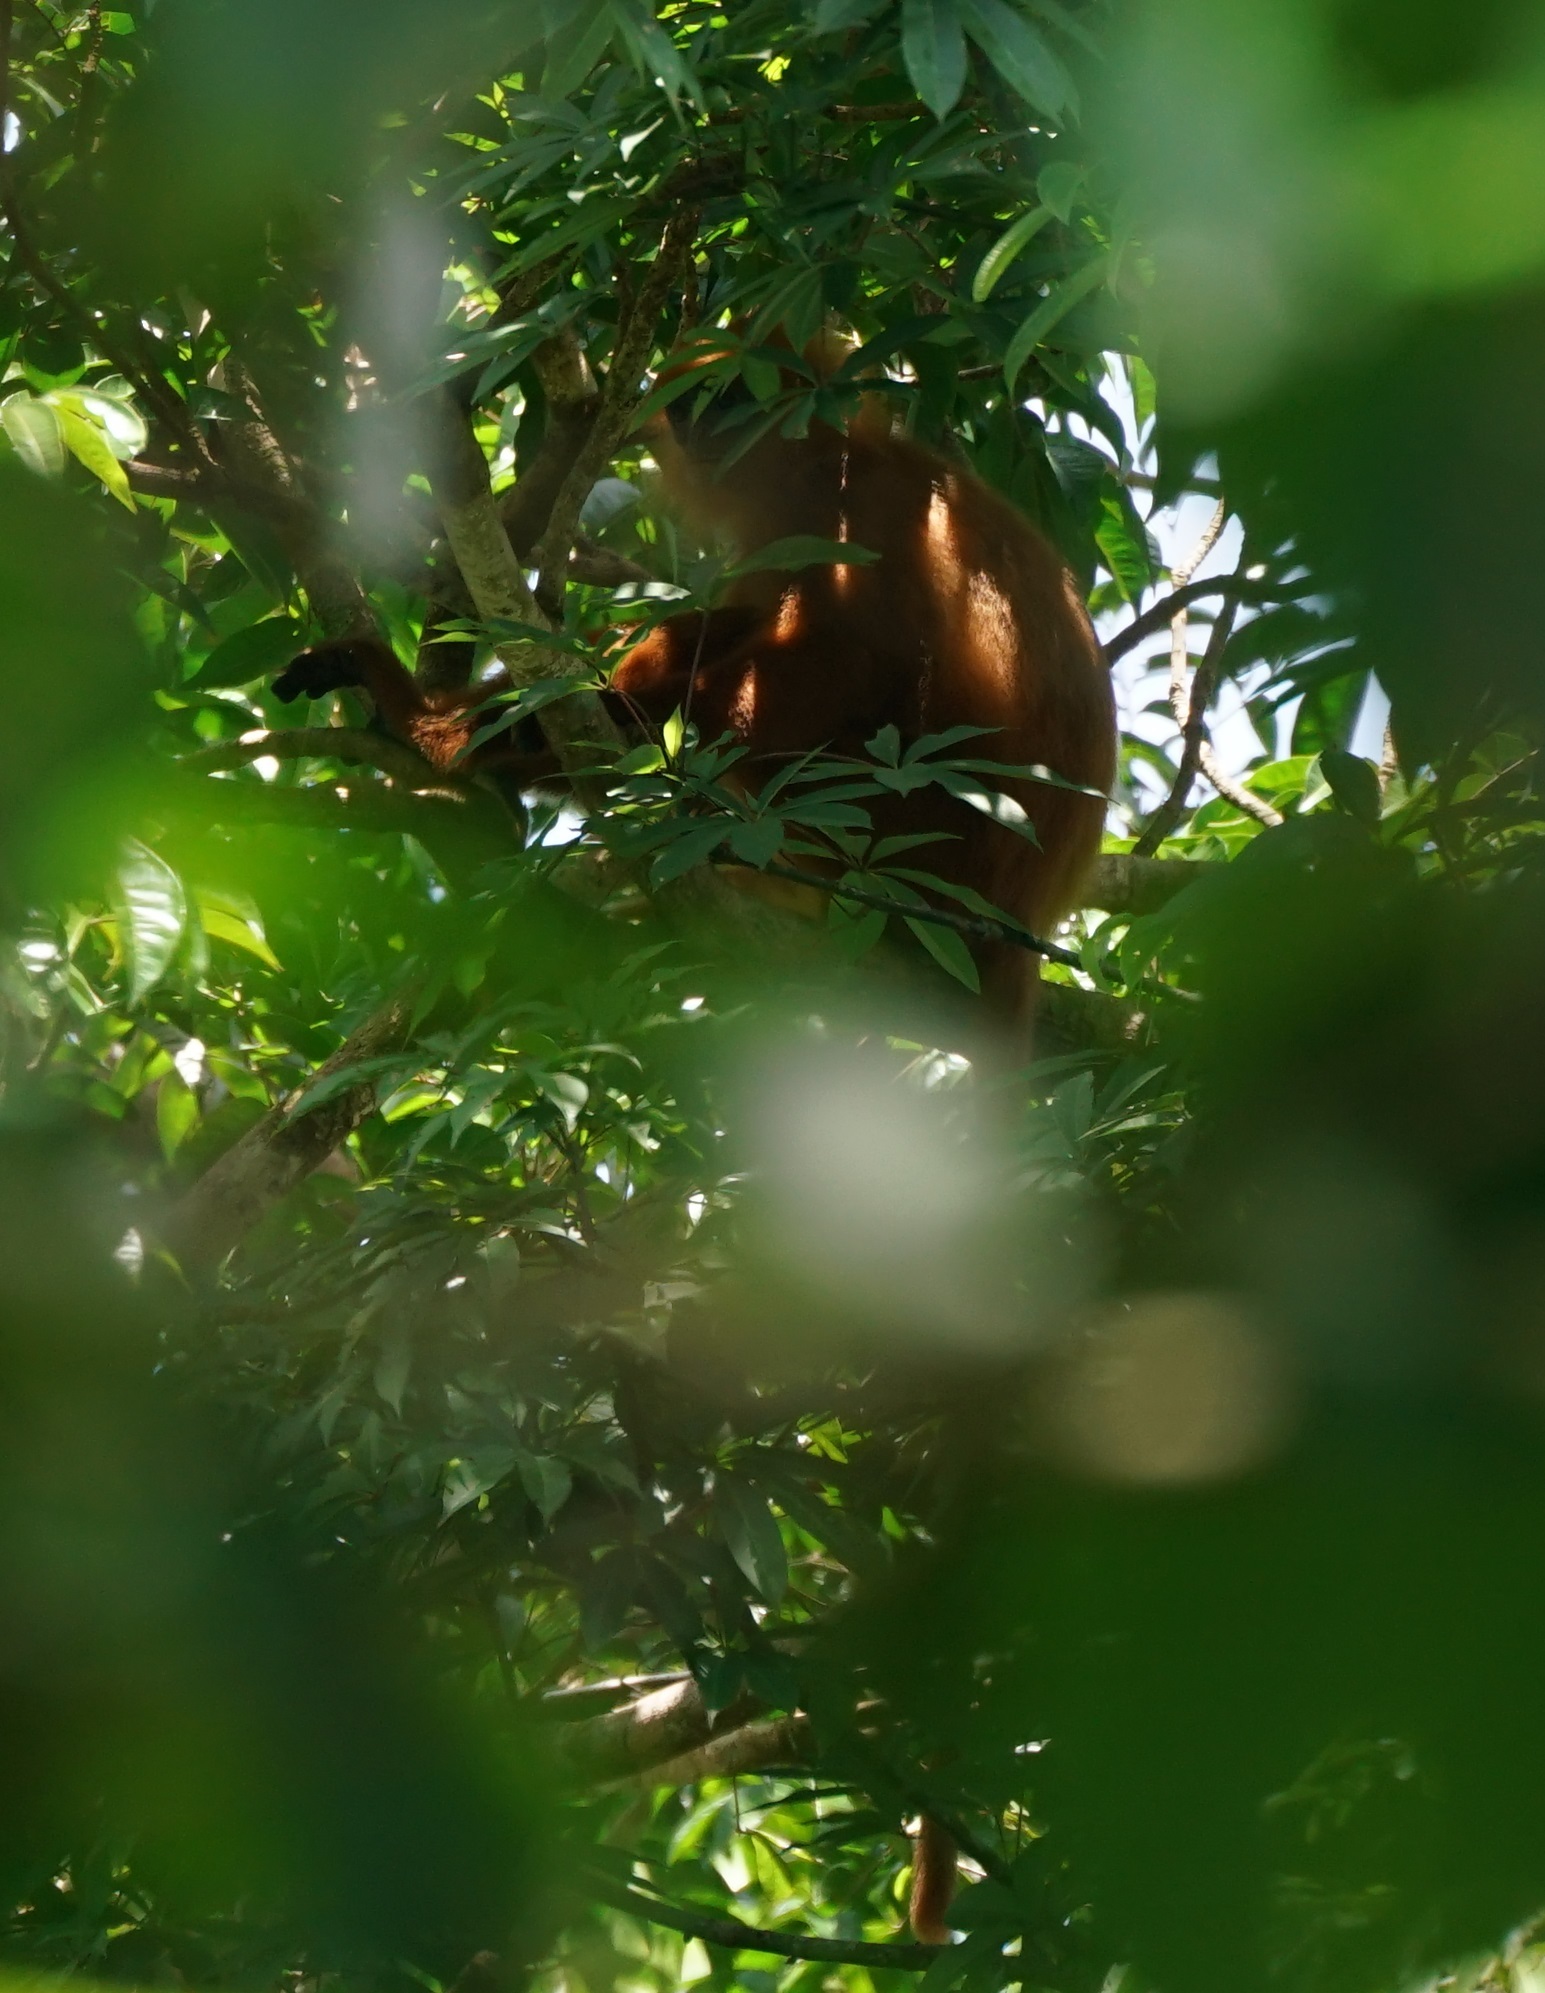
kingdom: Animalia
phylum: Chordata
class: Mammalia
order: Primates
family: Cercopithecidae
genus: Presbytis
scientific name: Presbytis rubicunda
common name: Maroon leaf monkey
